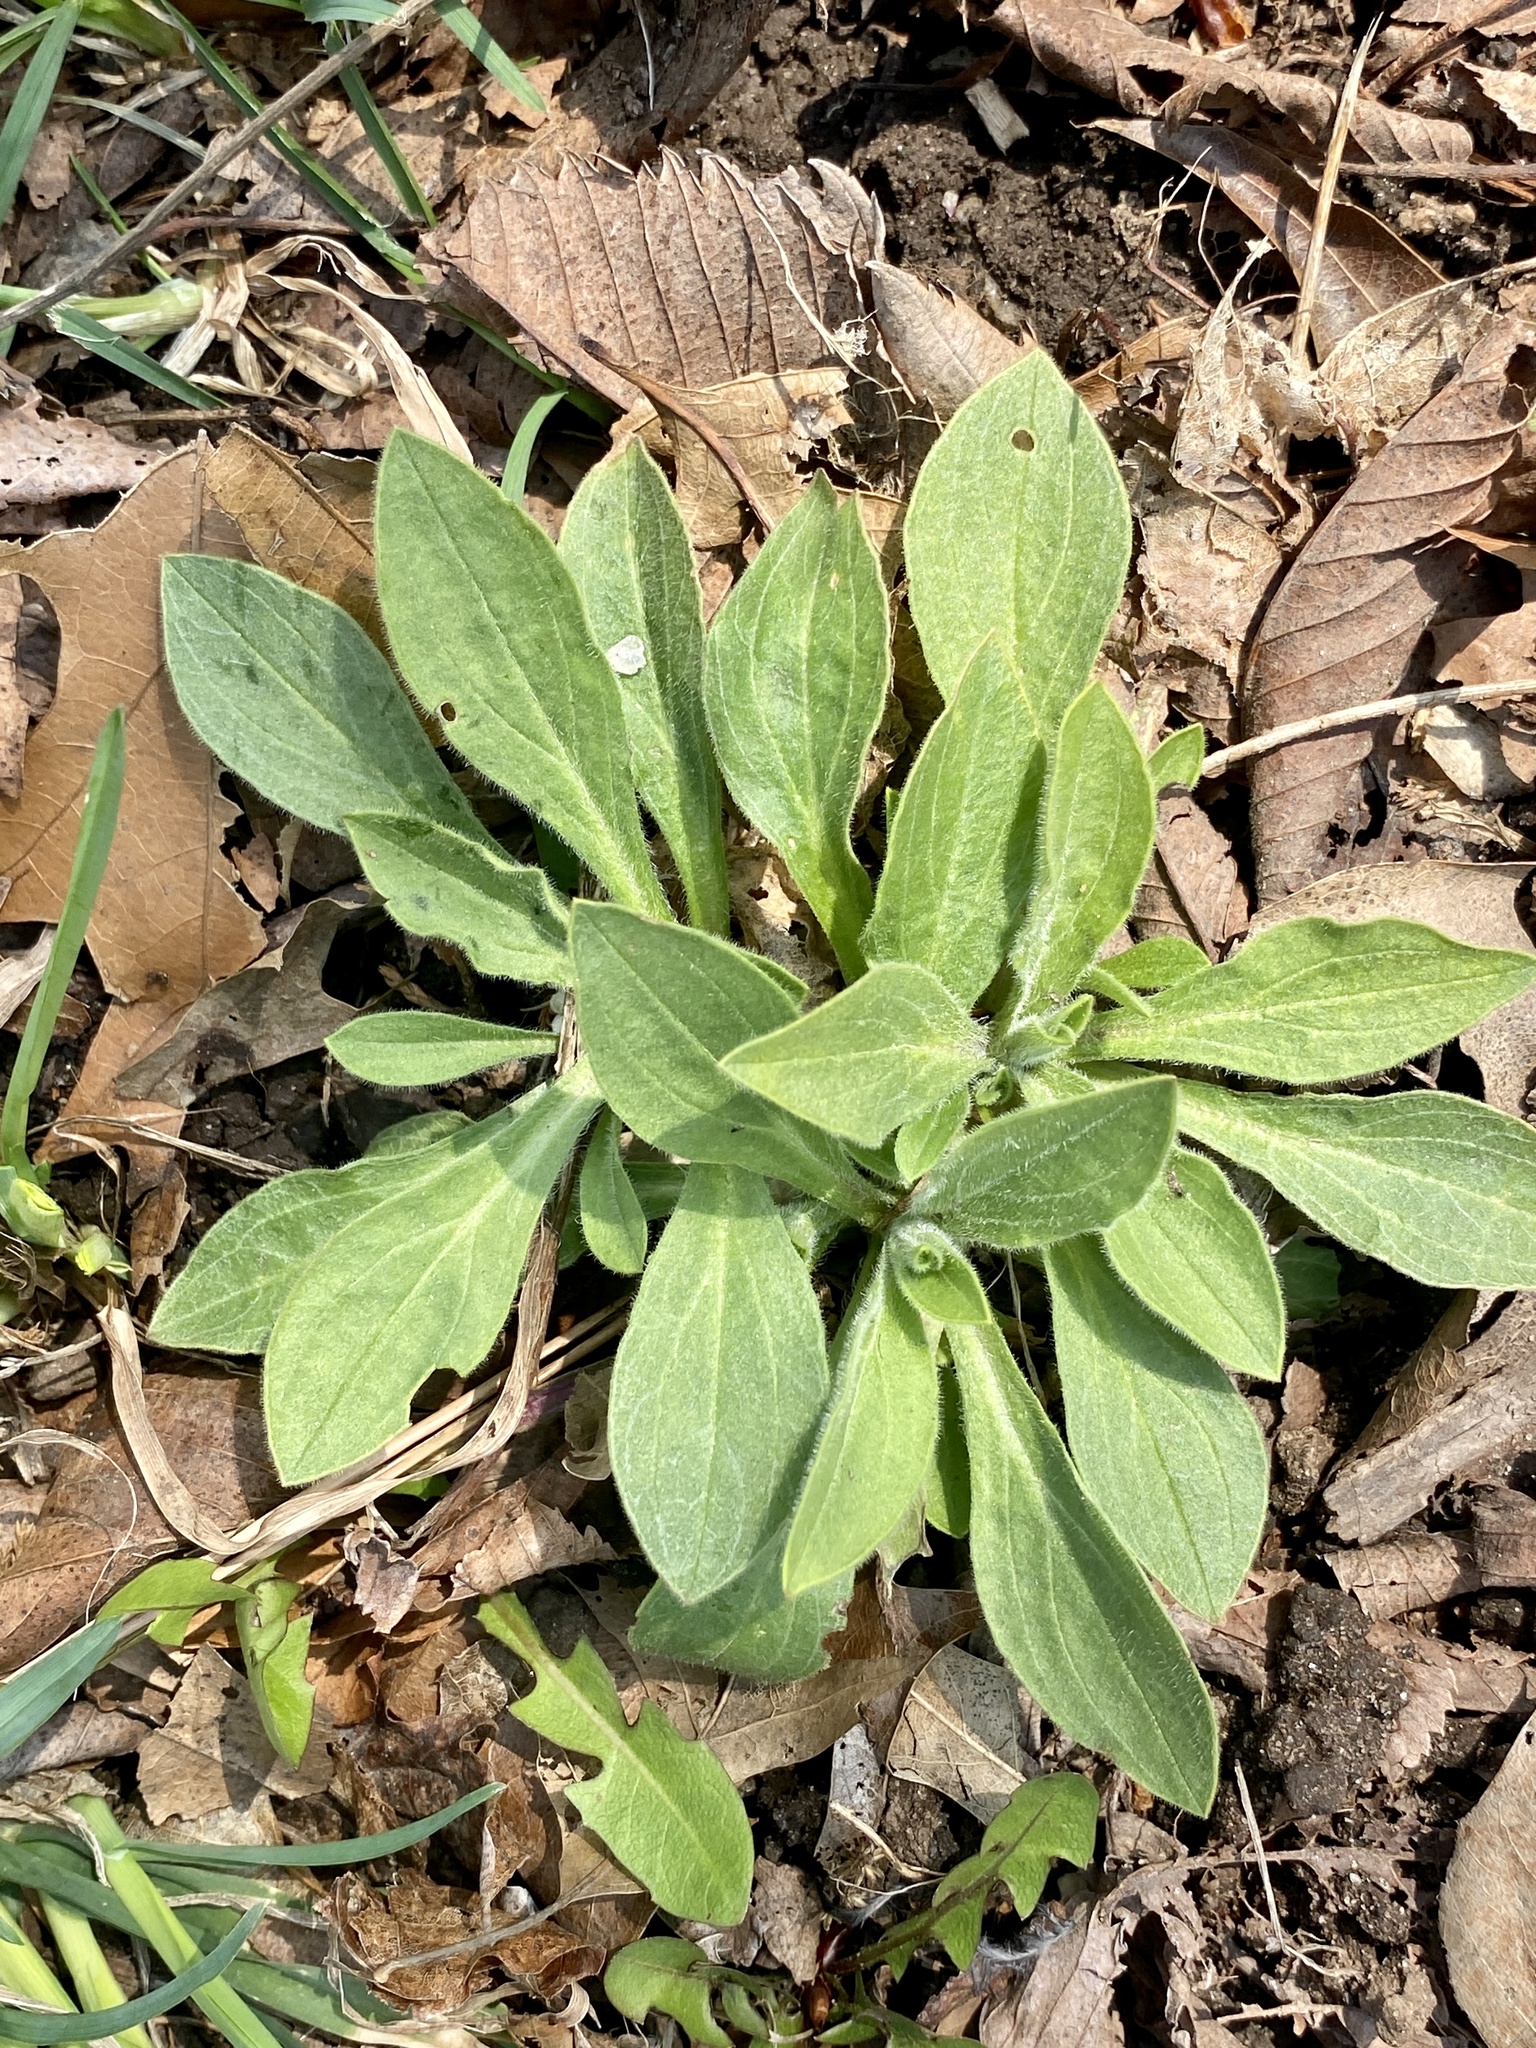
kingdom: Plantae
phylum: Tracheophyta
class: Magnoliopsida
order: Caryophyllales
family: Caryophyllaceae
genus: Silene
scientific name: Silene latifolia
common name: White campion
